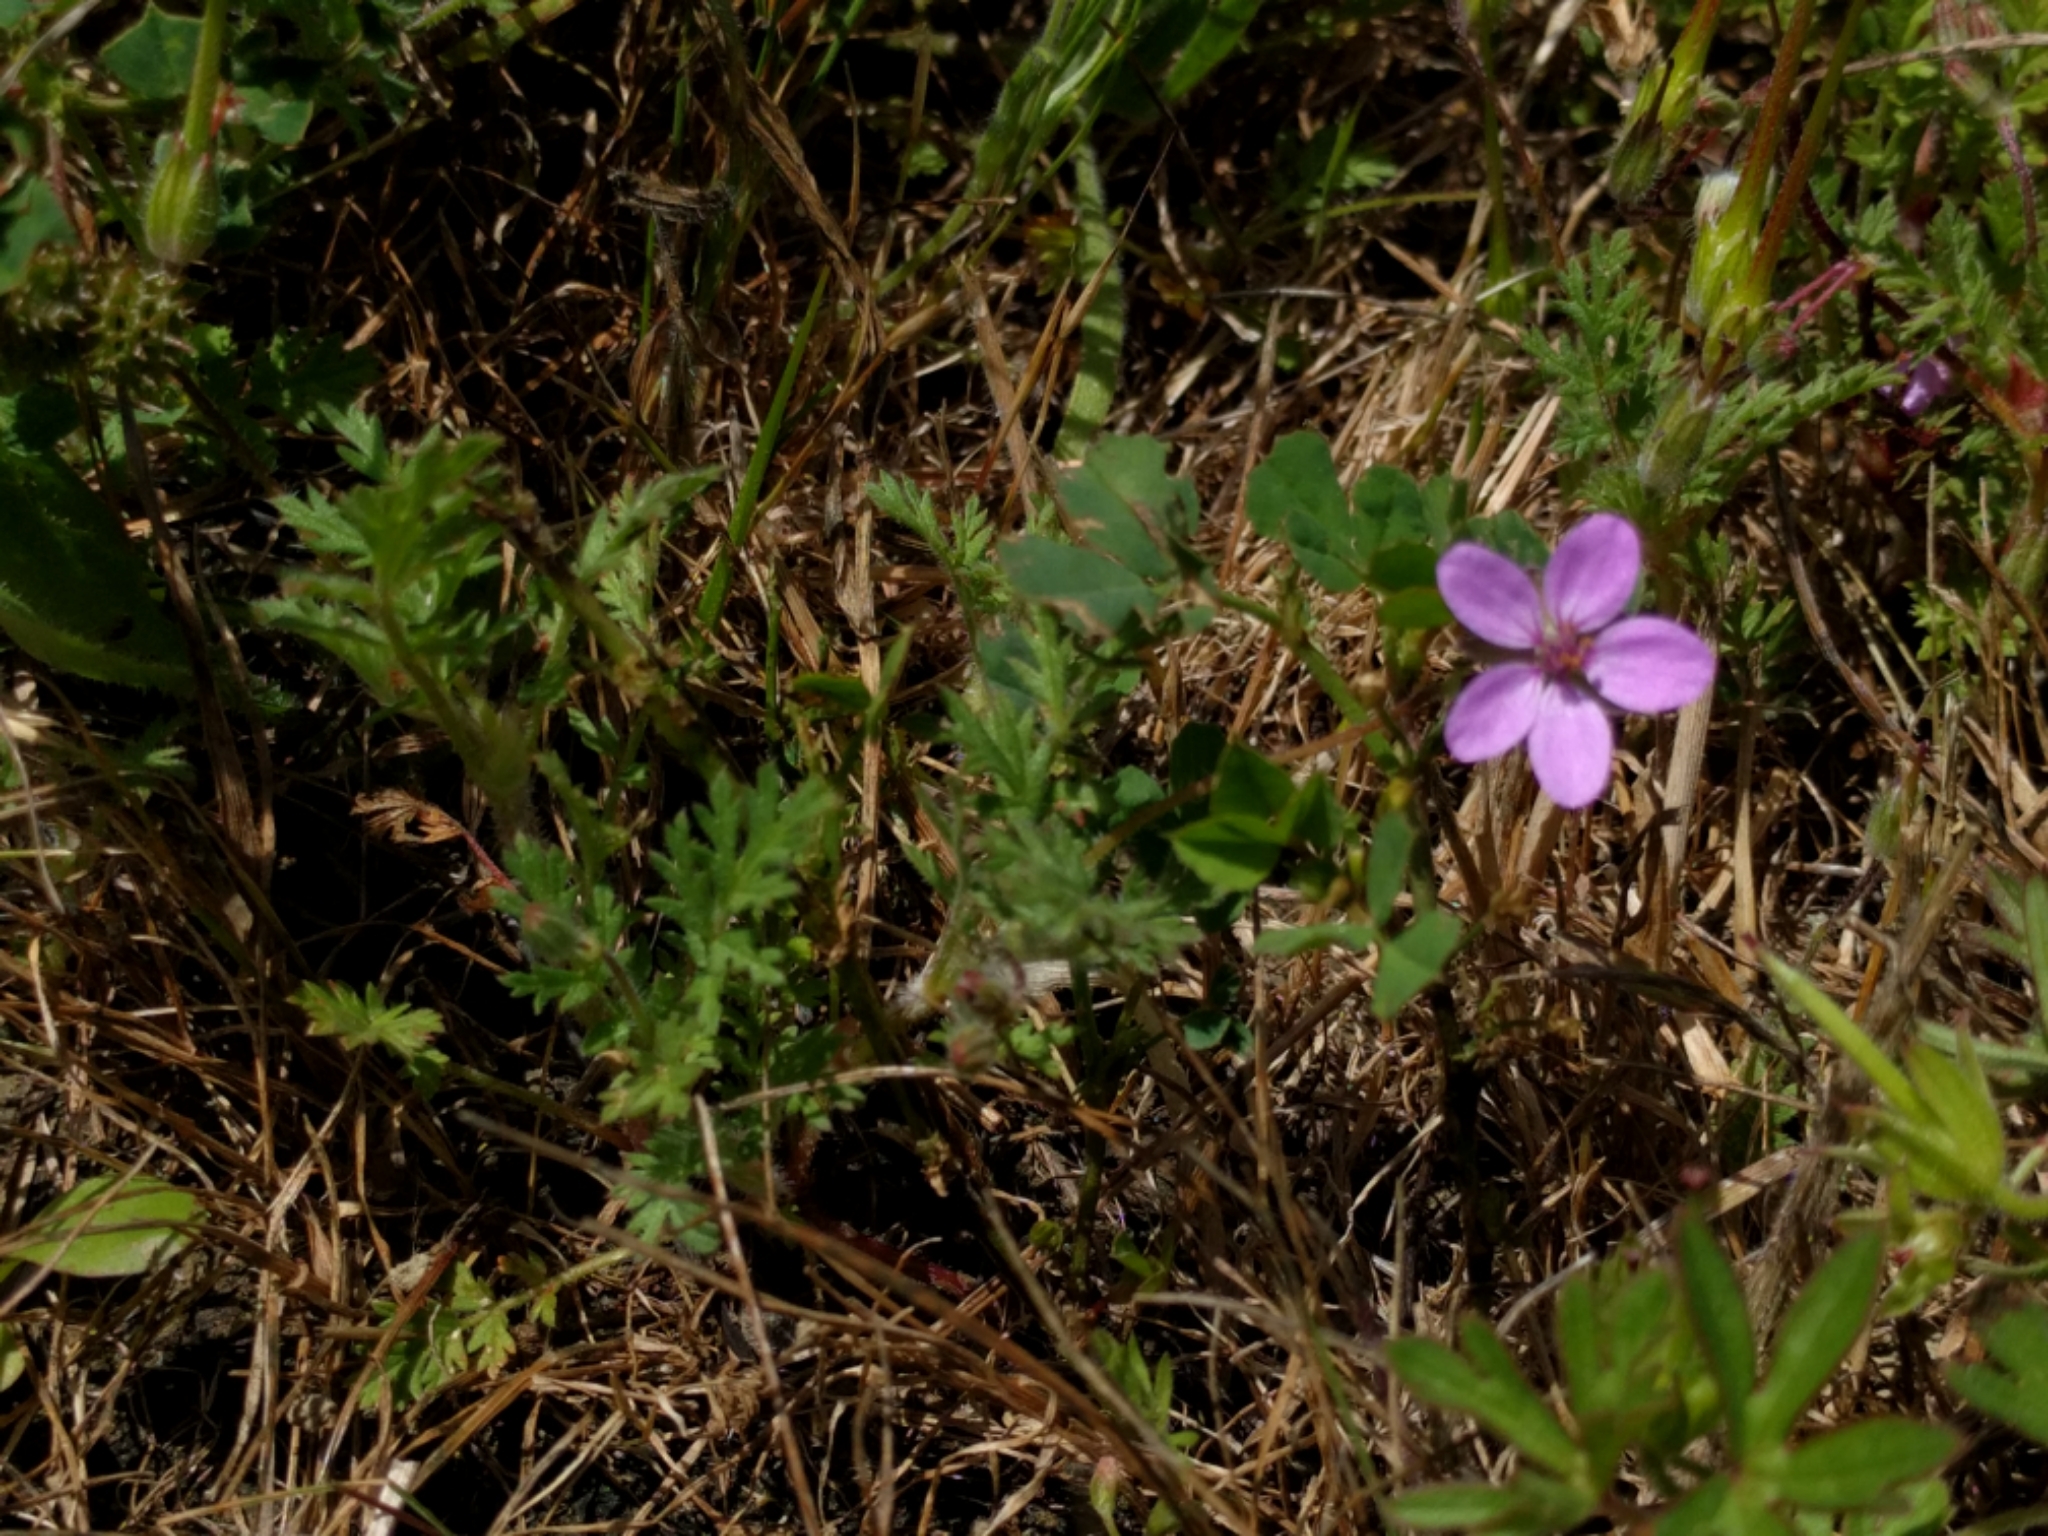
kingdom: Plantae
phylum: Tracheophyta
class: Magnoliopsida
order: Geraniales
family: Geraniaceae
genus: Erodium
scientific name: Erodium cicutarium
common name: Common stork's-bill
